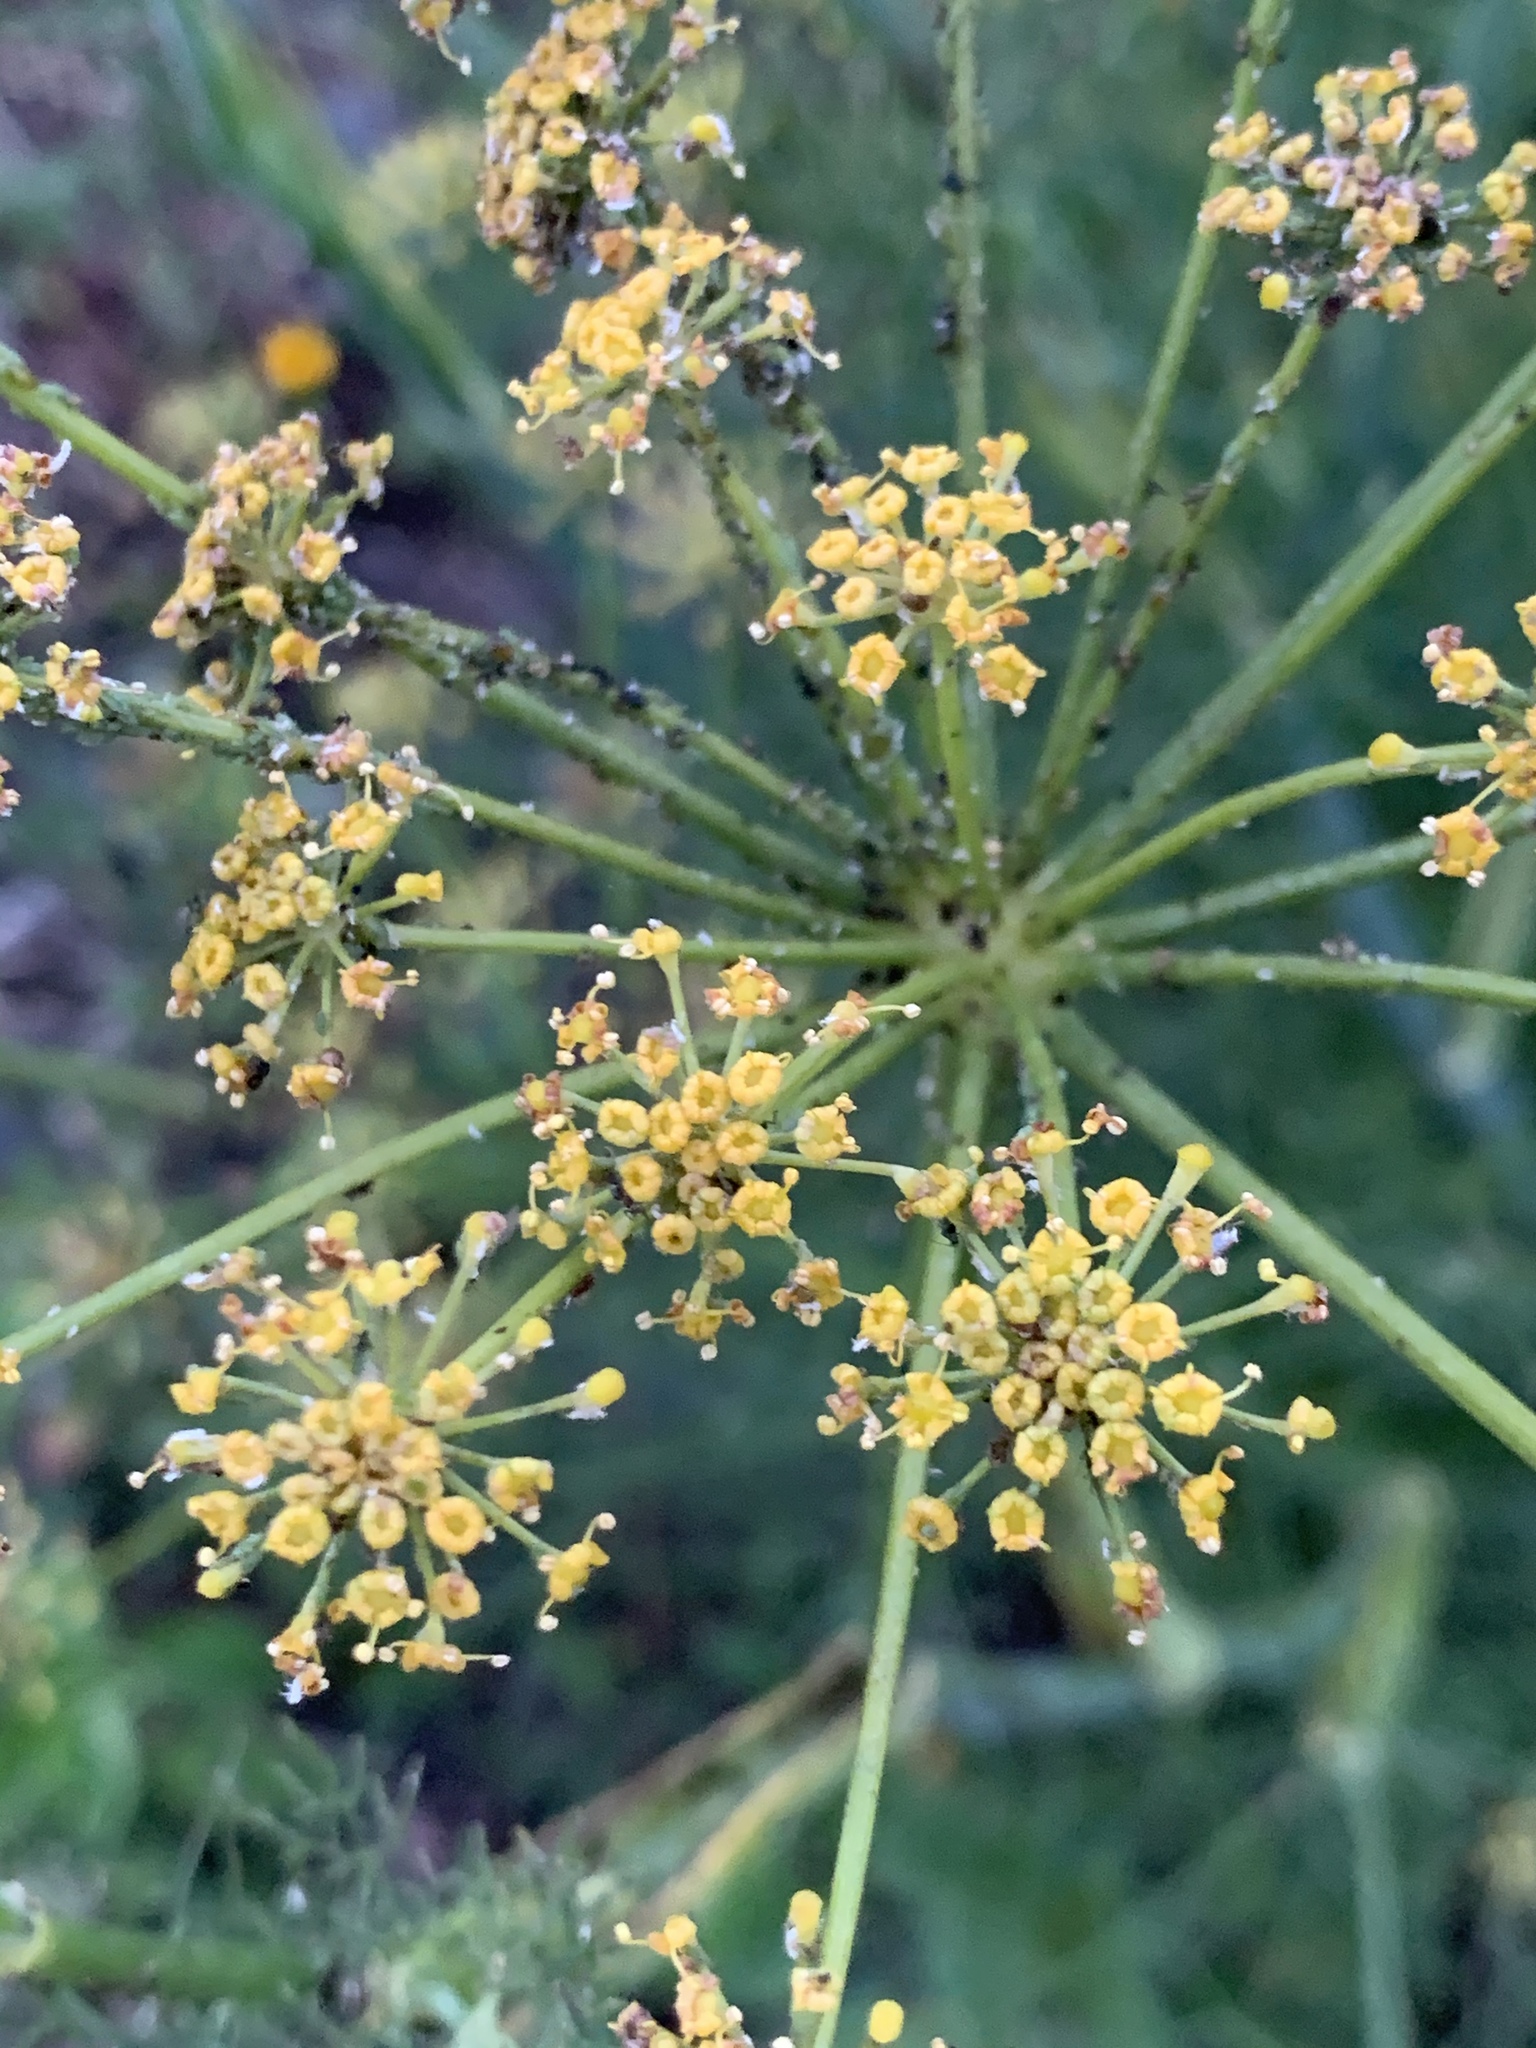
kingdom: Plantae
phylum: Tracheophyta
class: Magnoliopsida
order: Apiales
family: Apiaceae
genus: Foeniculum
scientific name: Foeniculum vulgare
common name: Fennel
